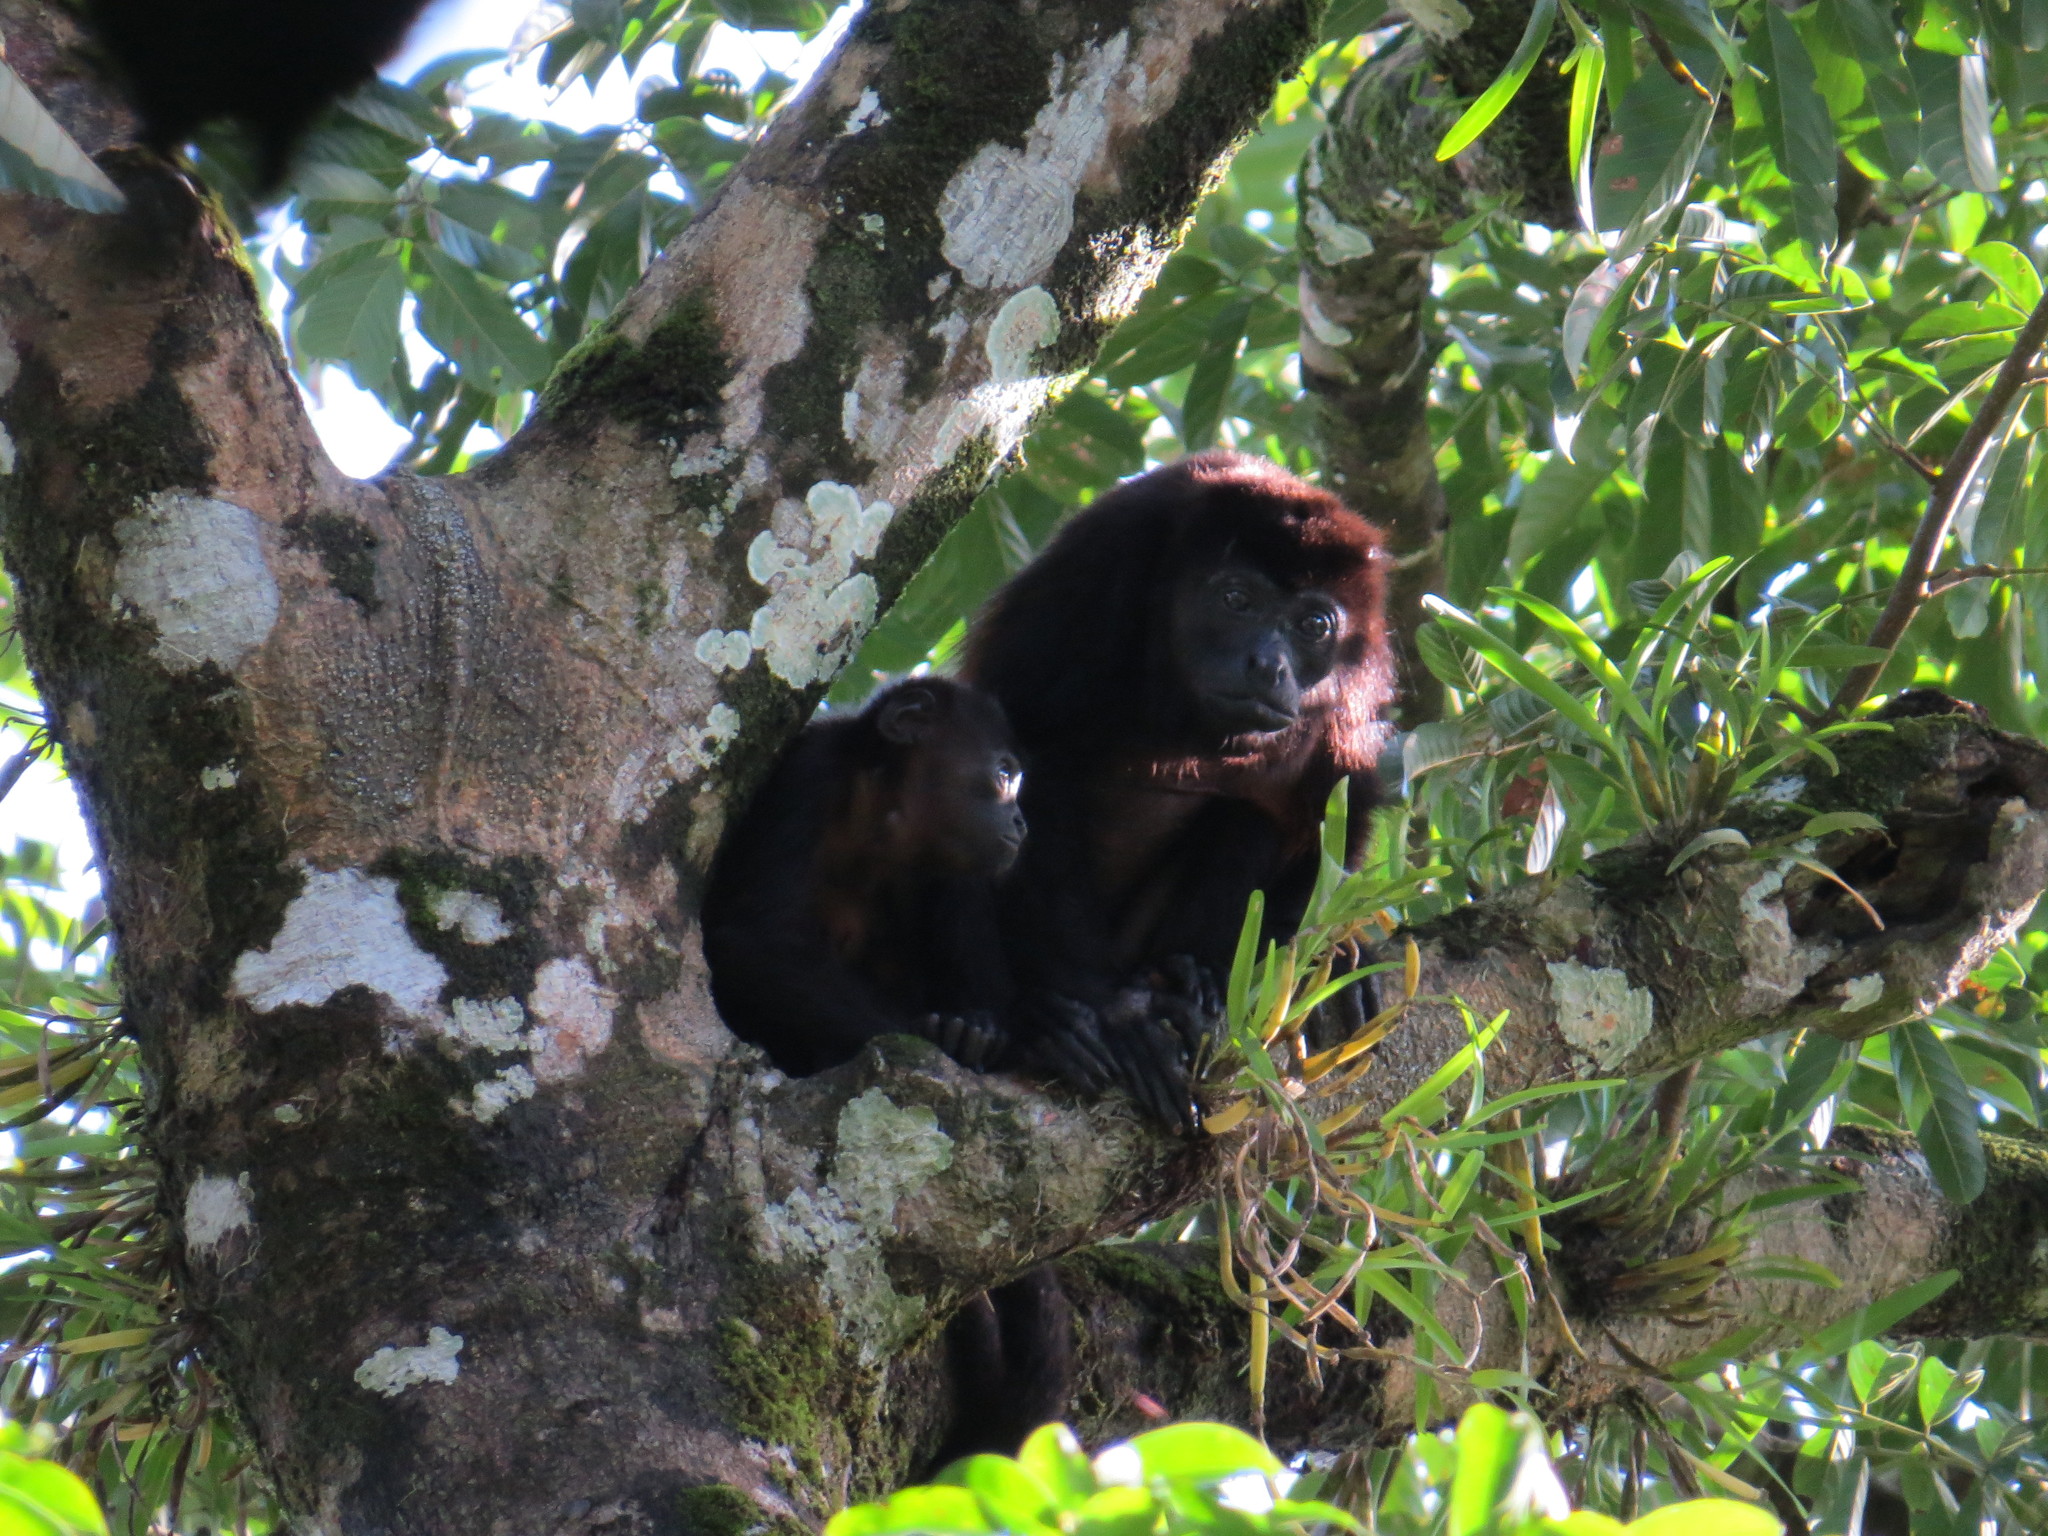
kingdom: Animalia
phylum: Chordata
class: Mammalia
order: Primates
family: Atelidae
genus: Alouatta
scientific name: Alouatta palliata
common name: Mantled howler
